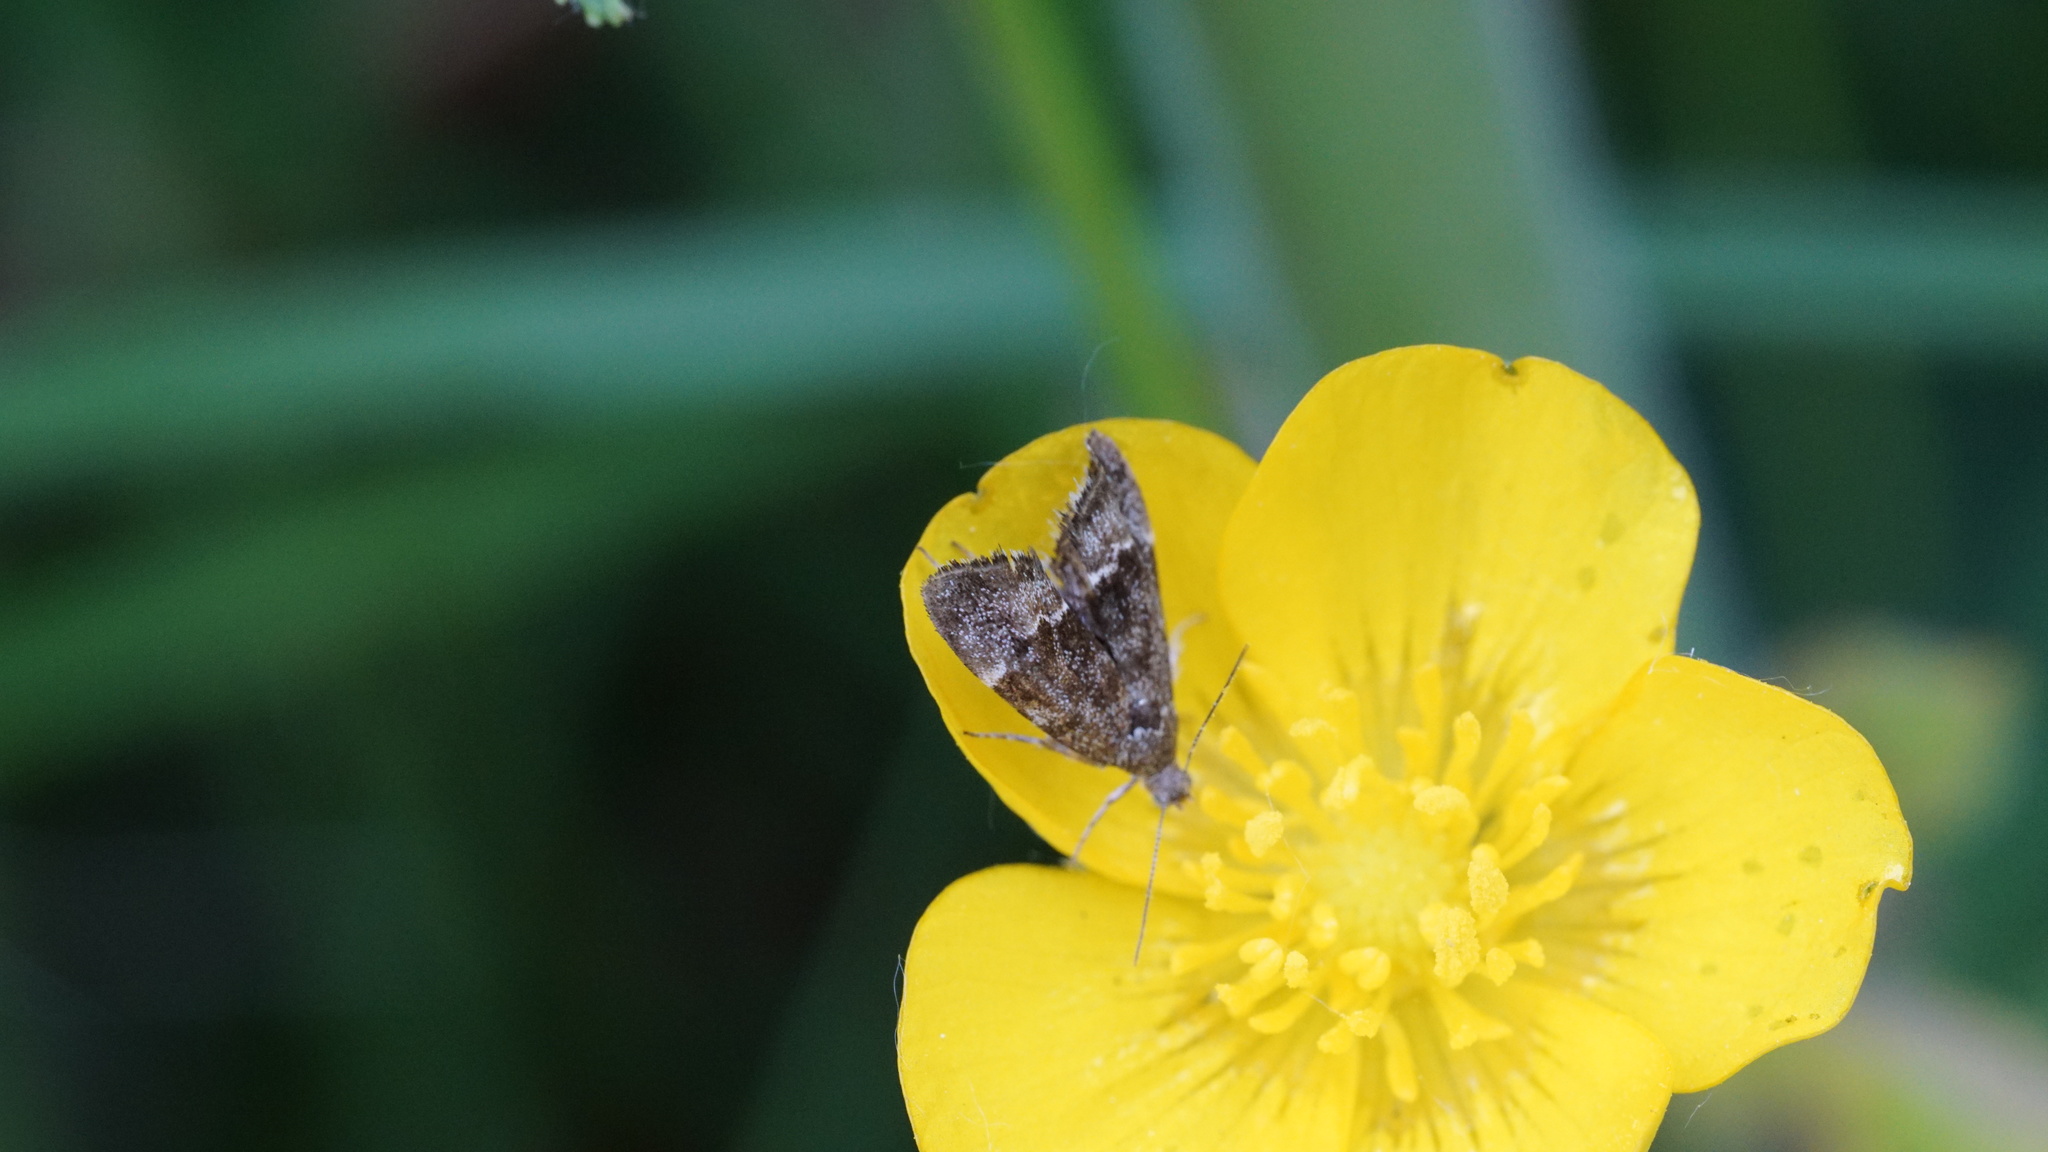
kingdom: Animalia
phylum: Arthropoda
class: Insecta
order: Lepidoptera
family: Choreutidae
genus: Anthophila
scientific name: Anthophila fabriciana
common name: Nettle-tap
